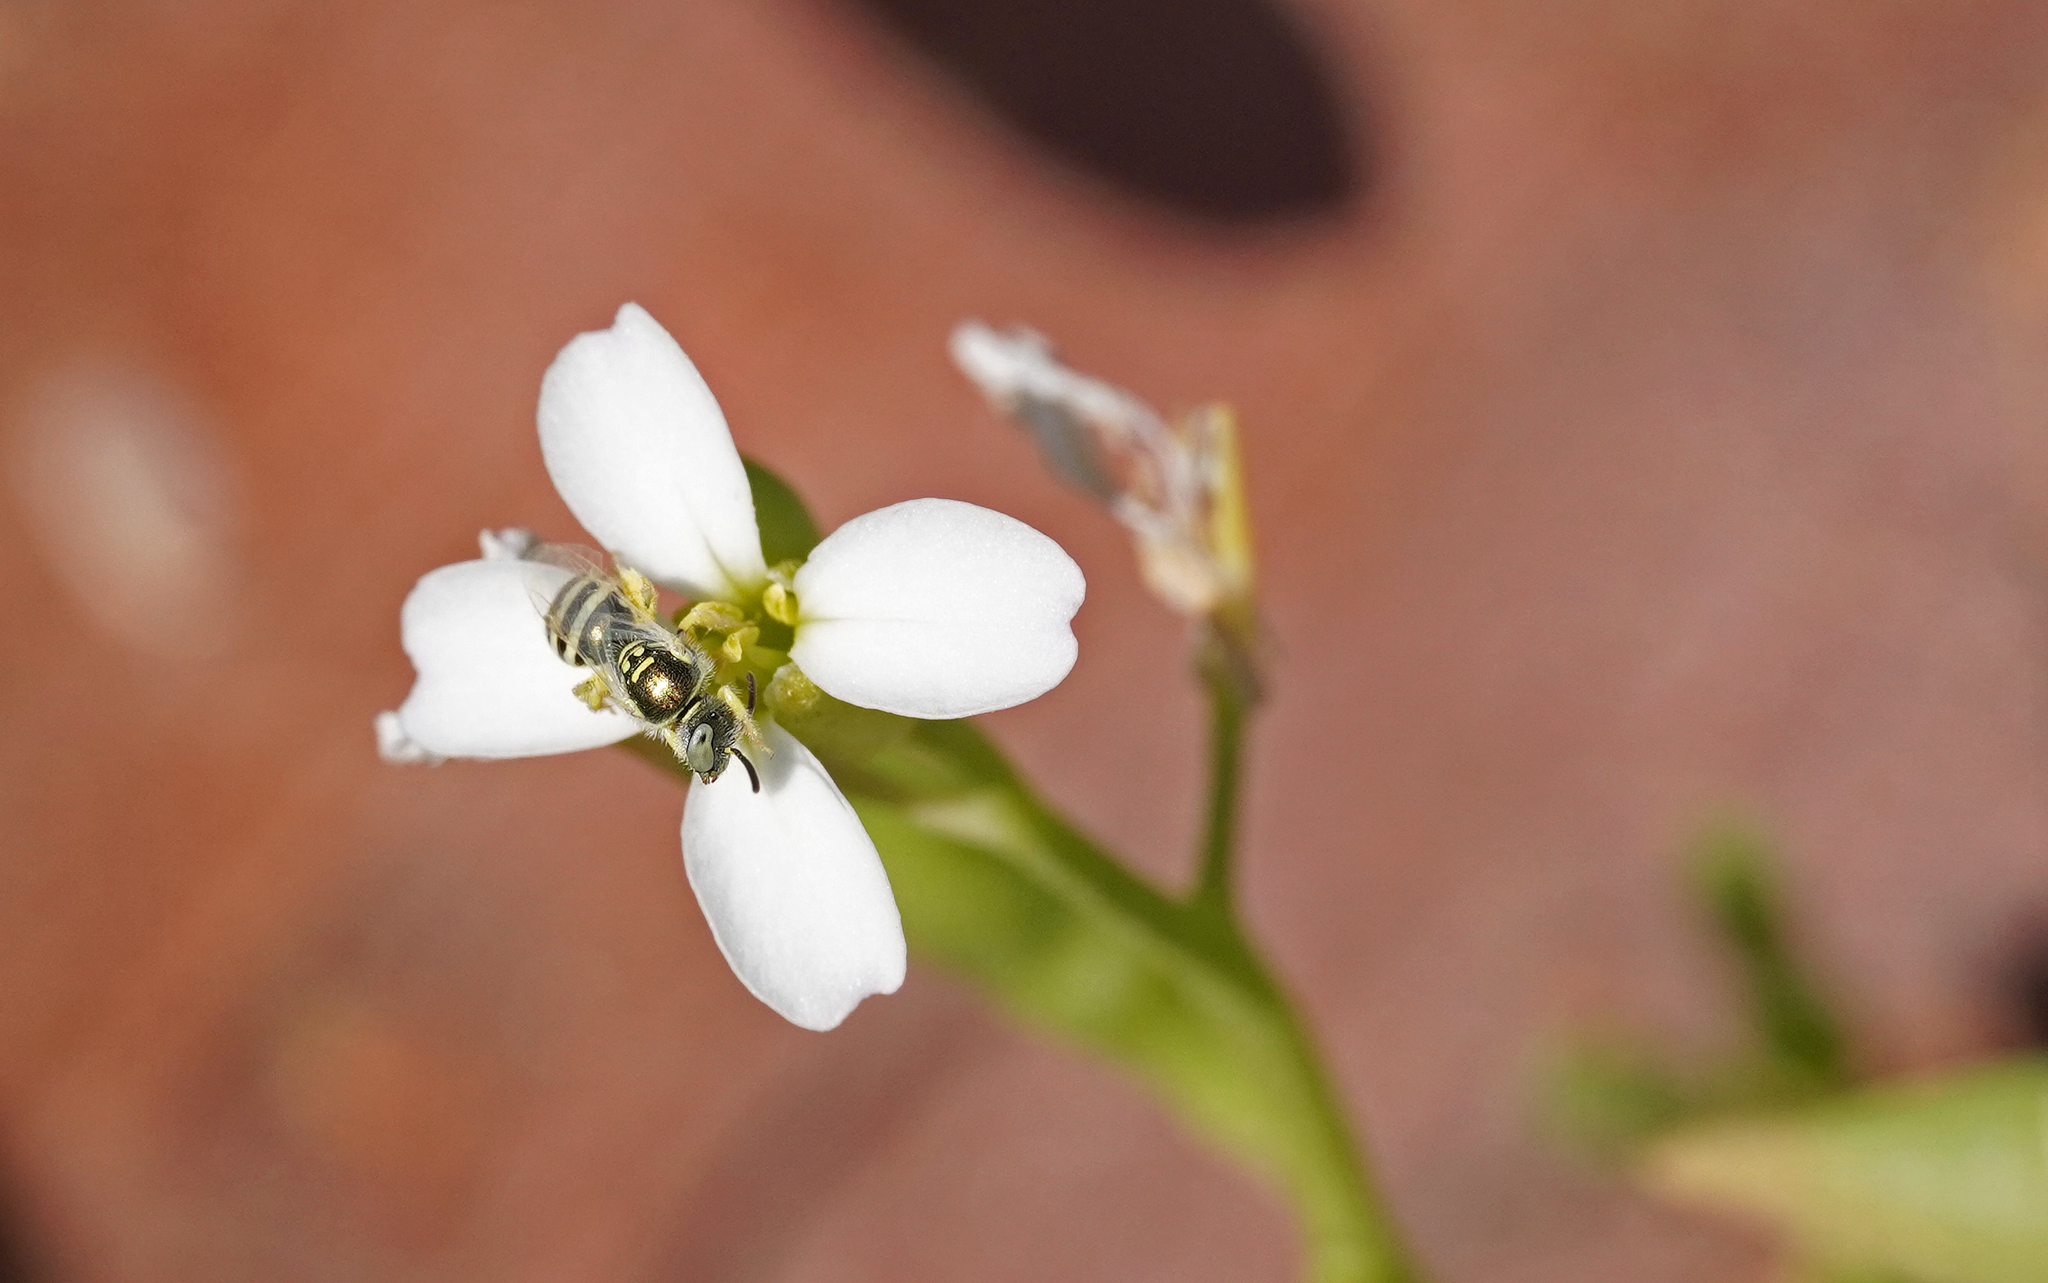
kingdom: Animalia
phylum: Arthropoda
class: Insecta
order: Hymenoptera
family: Halictidae
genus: Ceylalictus
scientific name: Ceylalictus variegatus
